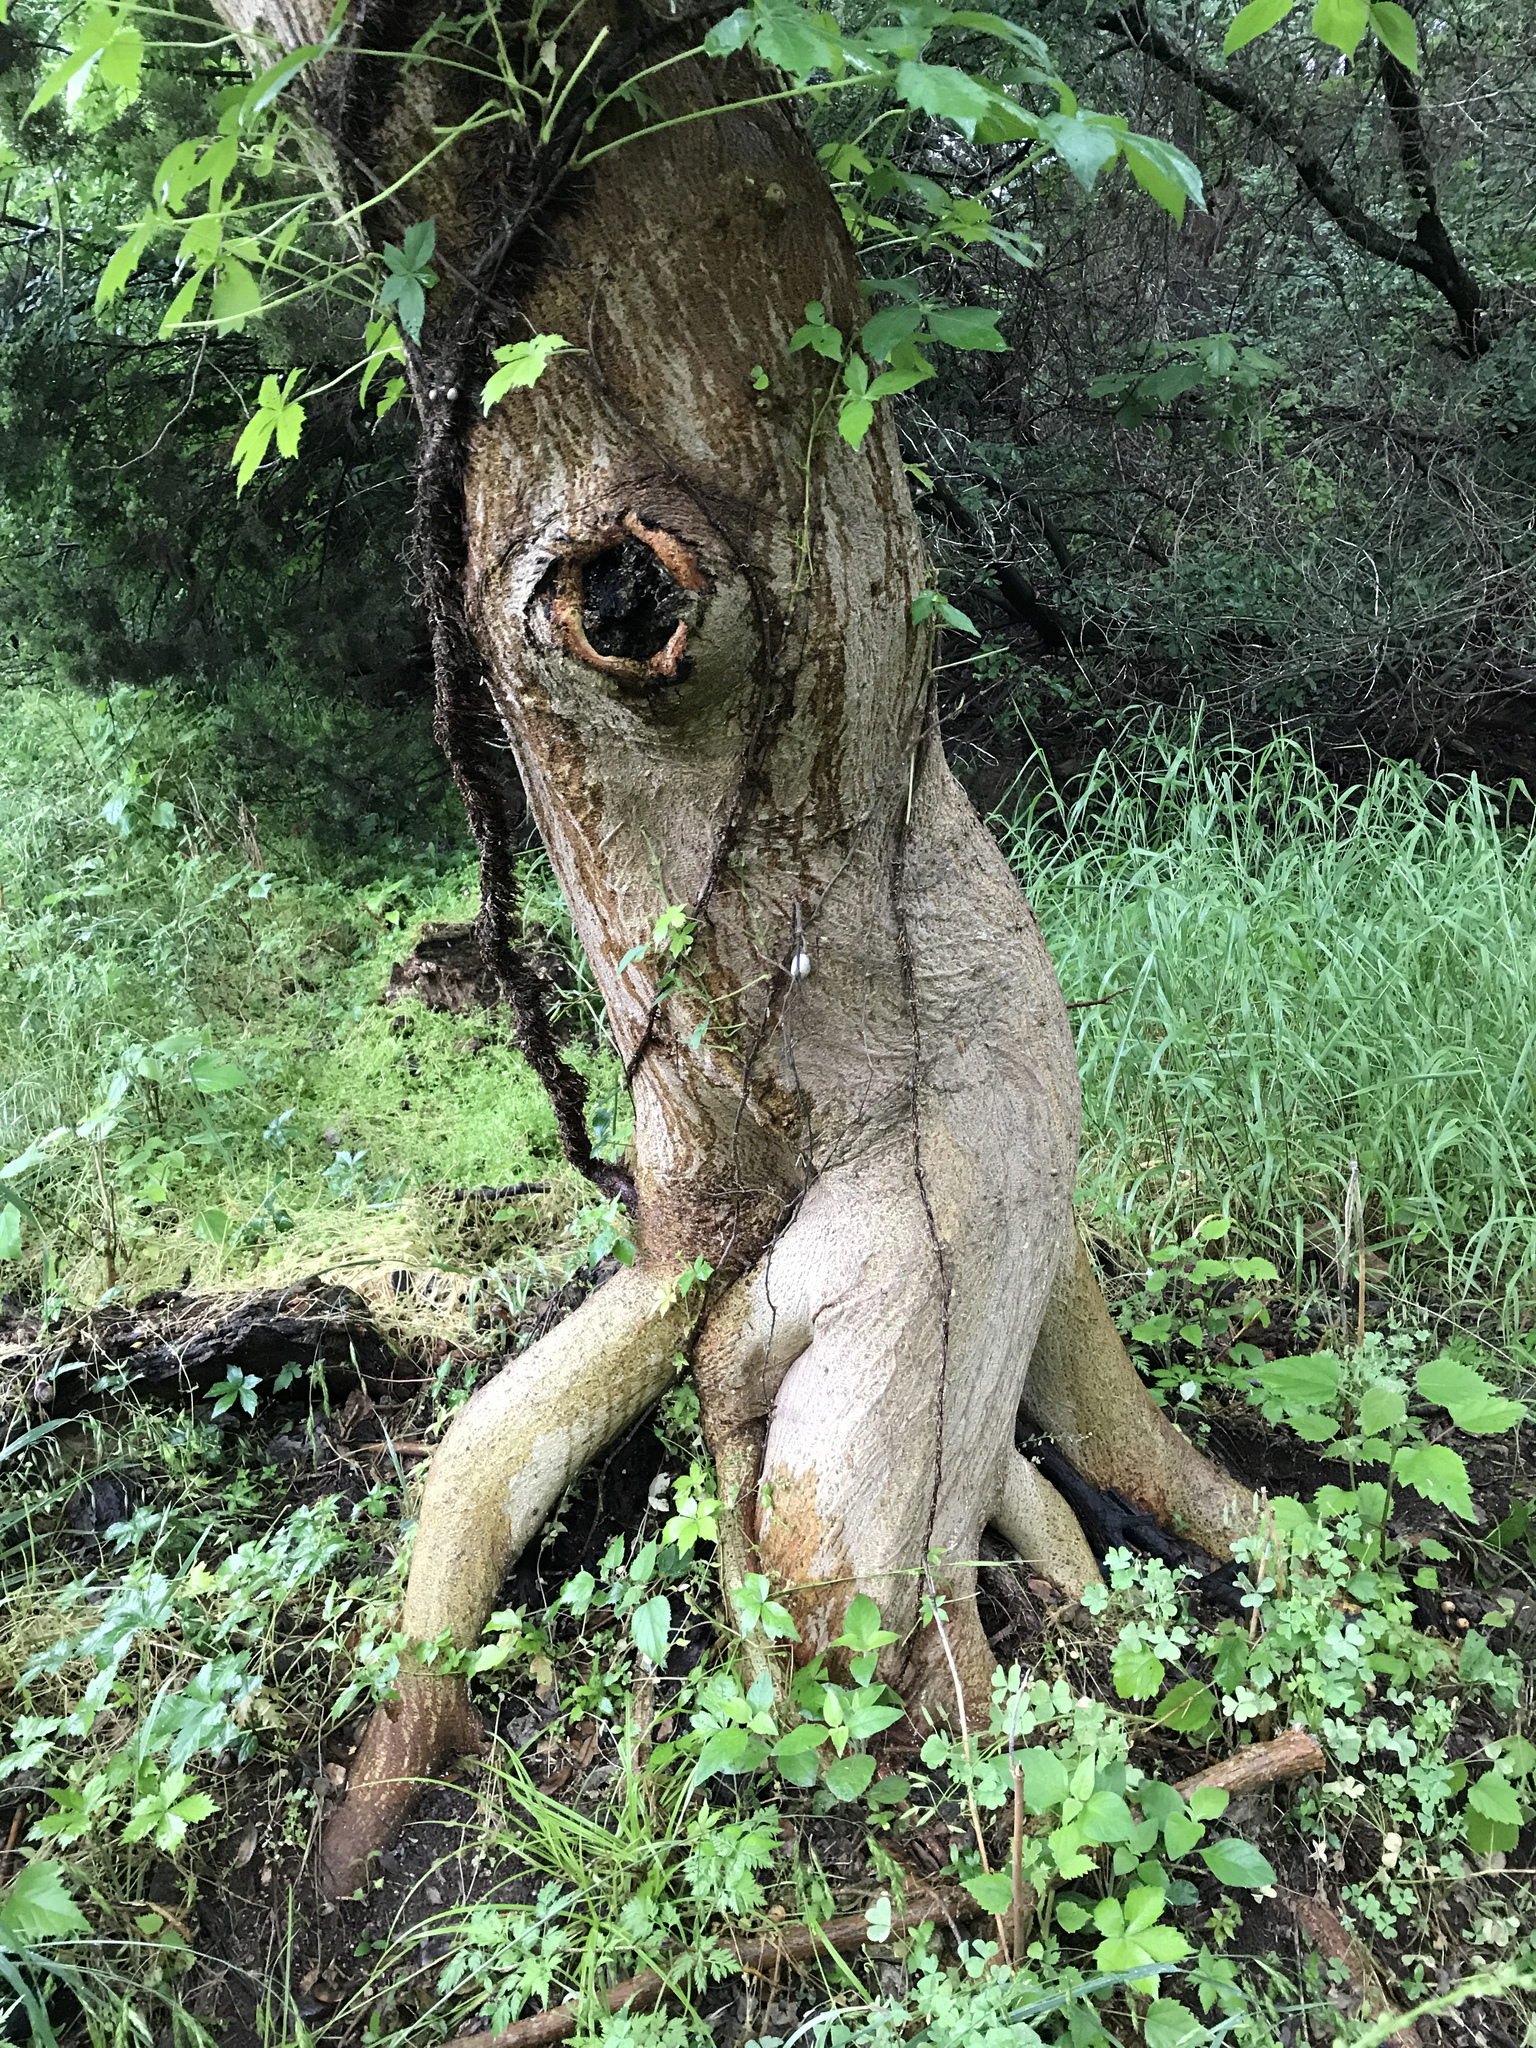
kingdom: Plantae
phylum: Tracheophyta
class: Magnoliopsida
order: Rosales
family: Moraceae
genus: Broussonetia
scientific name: Broussonetia papyrifera
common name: Paper mulberry
